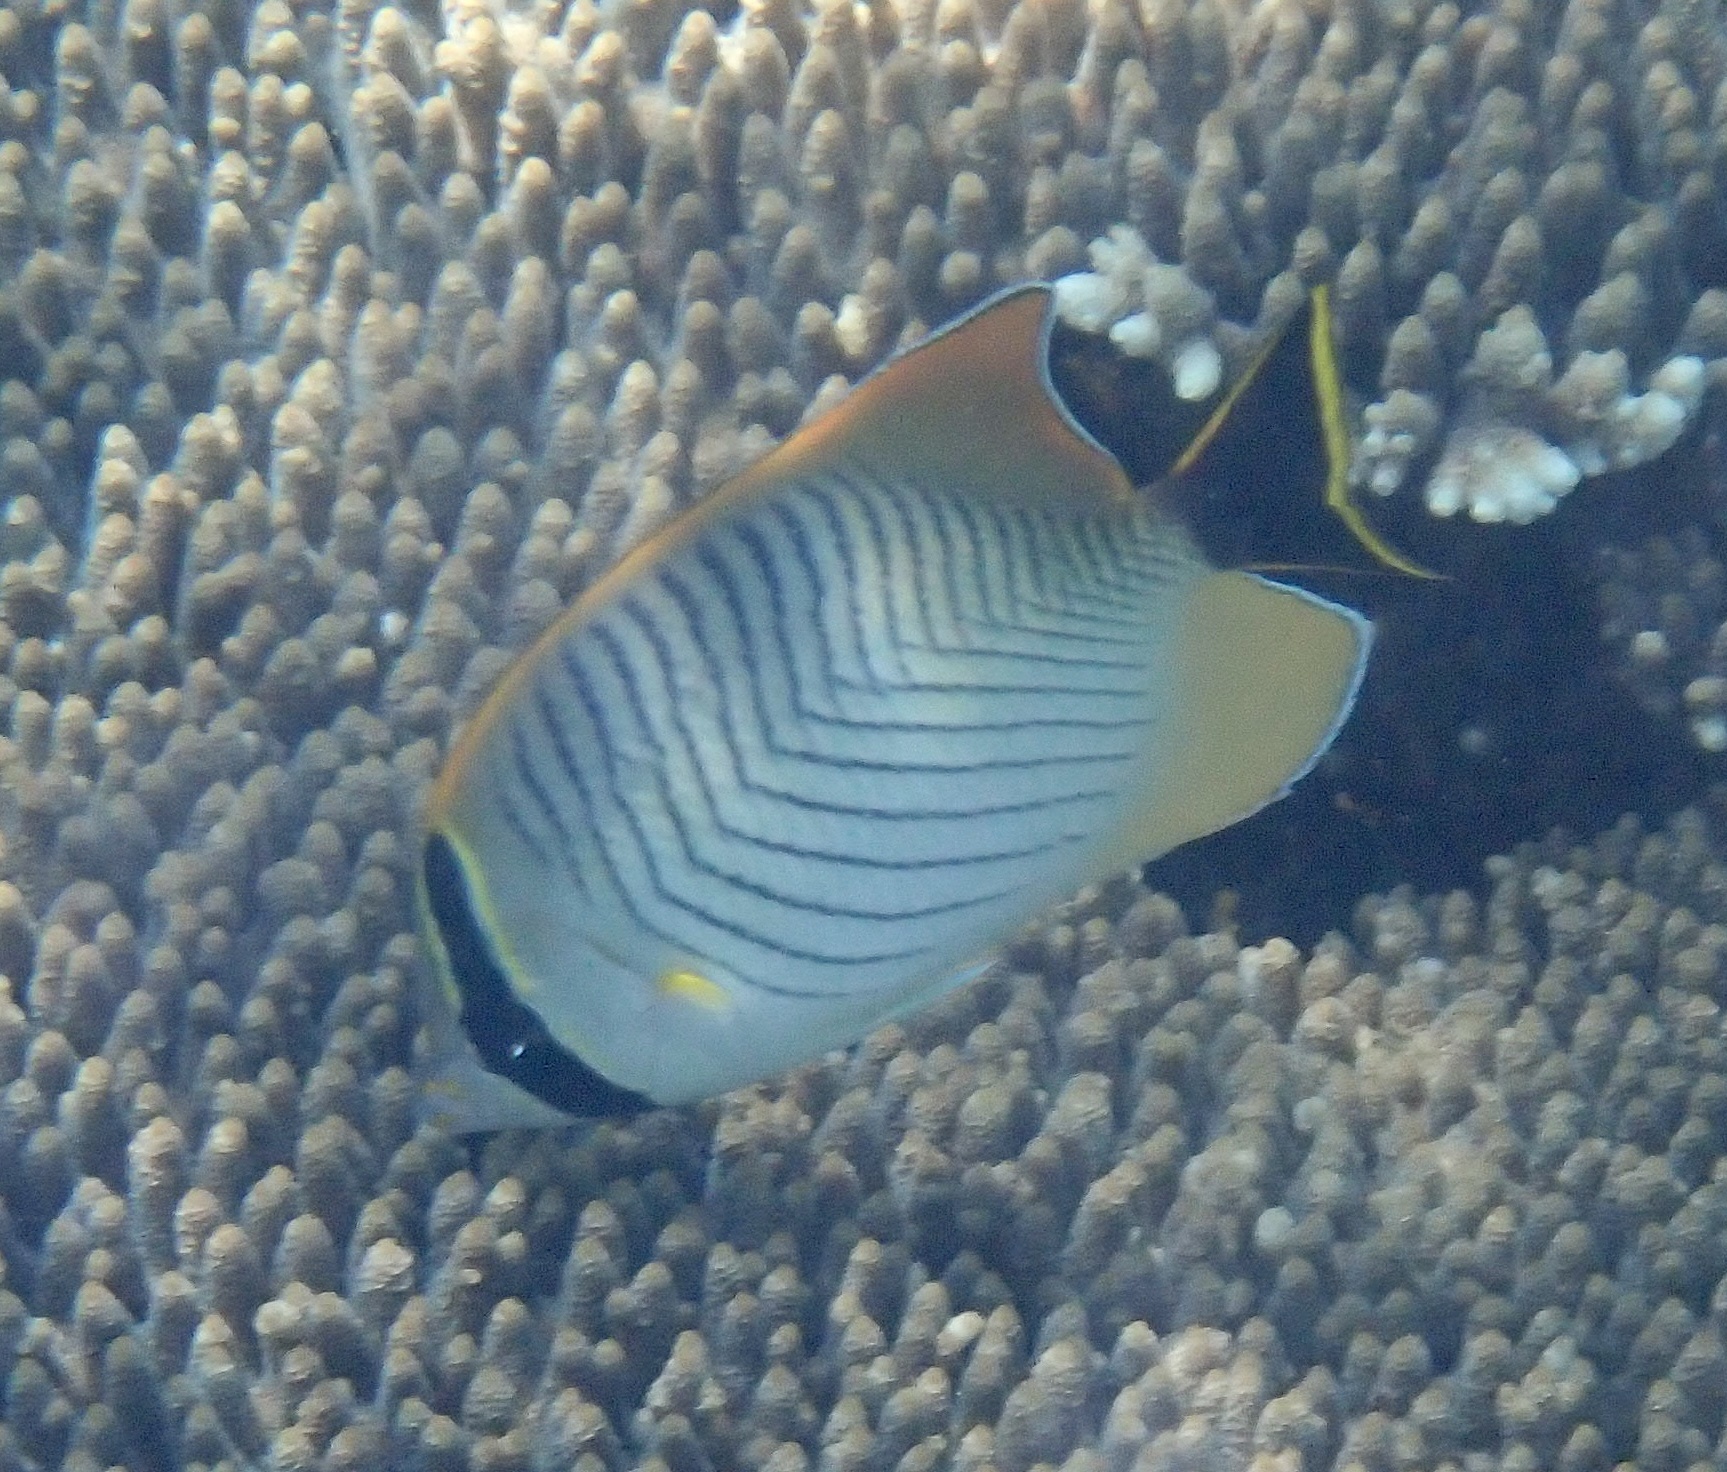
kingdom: Animalia
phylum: Chordata
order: Perciformes
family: Chaetodontidae
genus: Chaetodon
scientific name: Chaetodon trifascialis
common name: Chevroned butterflyfish
